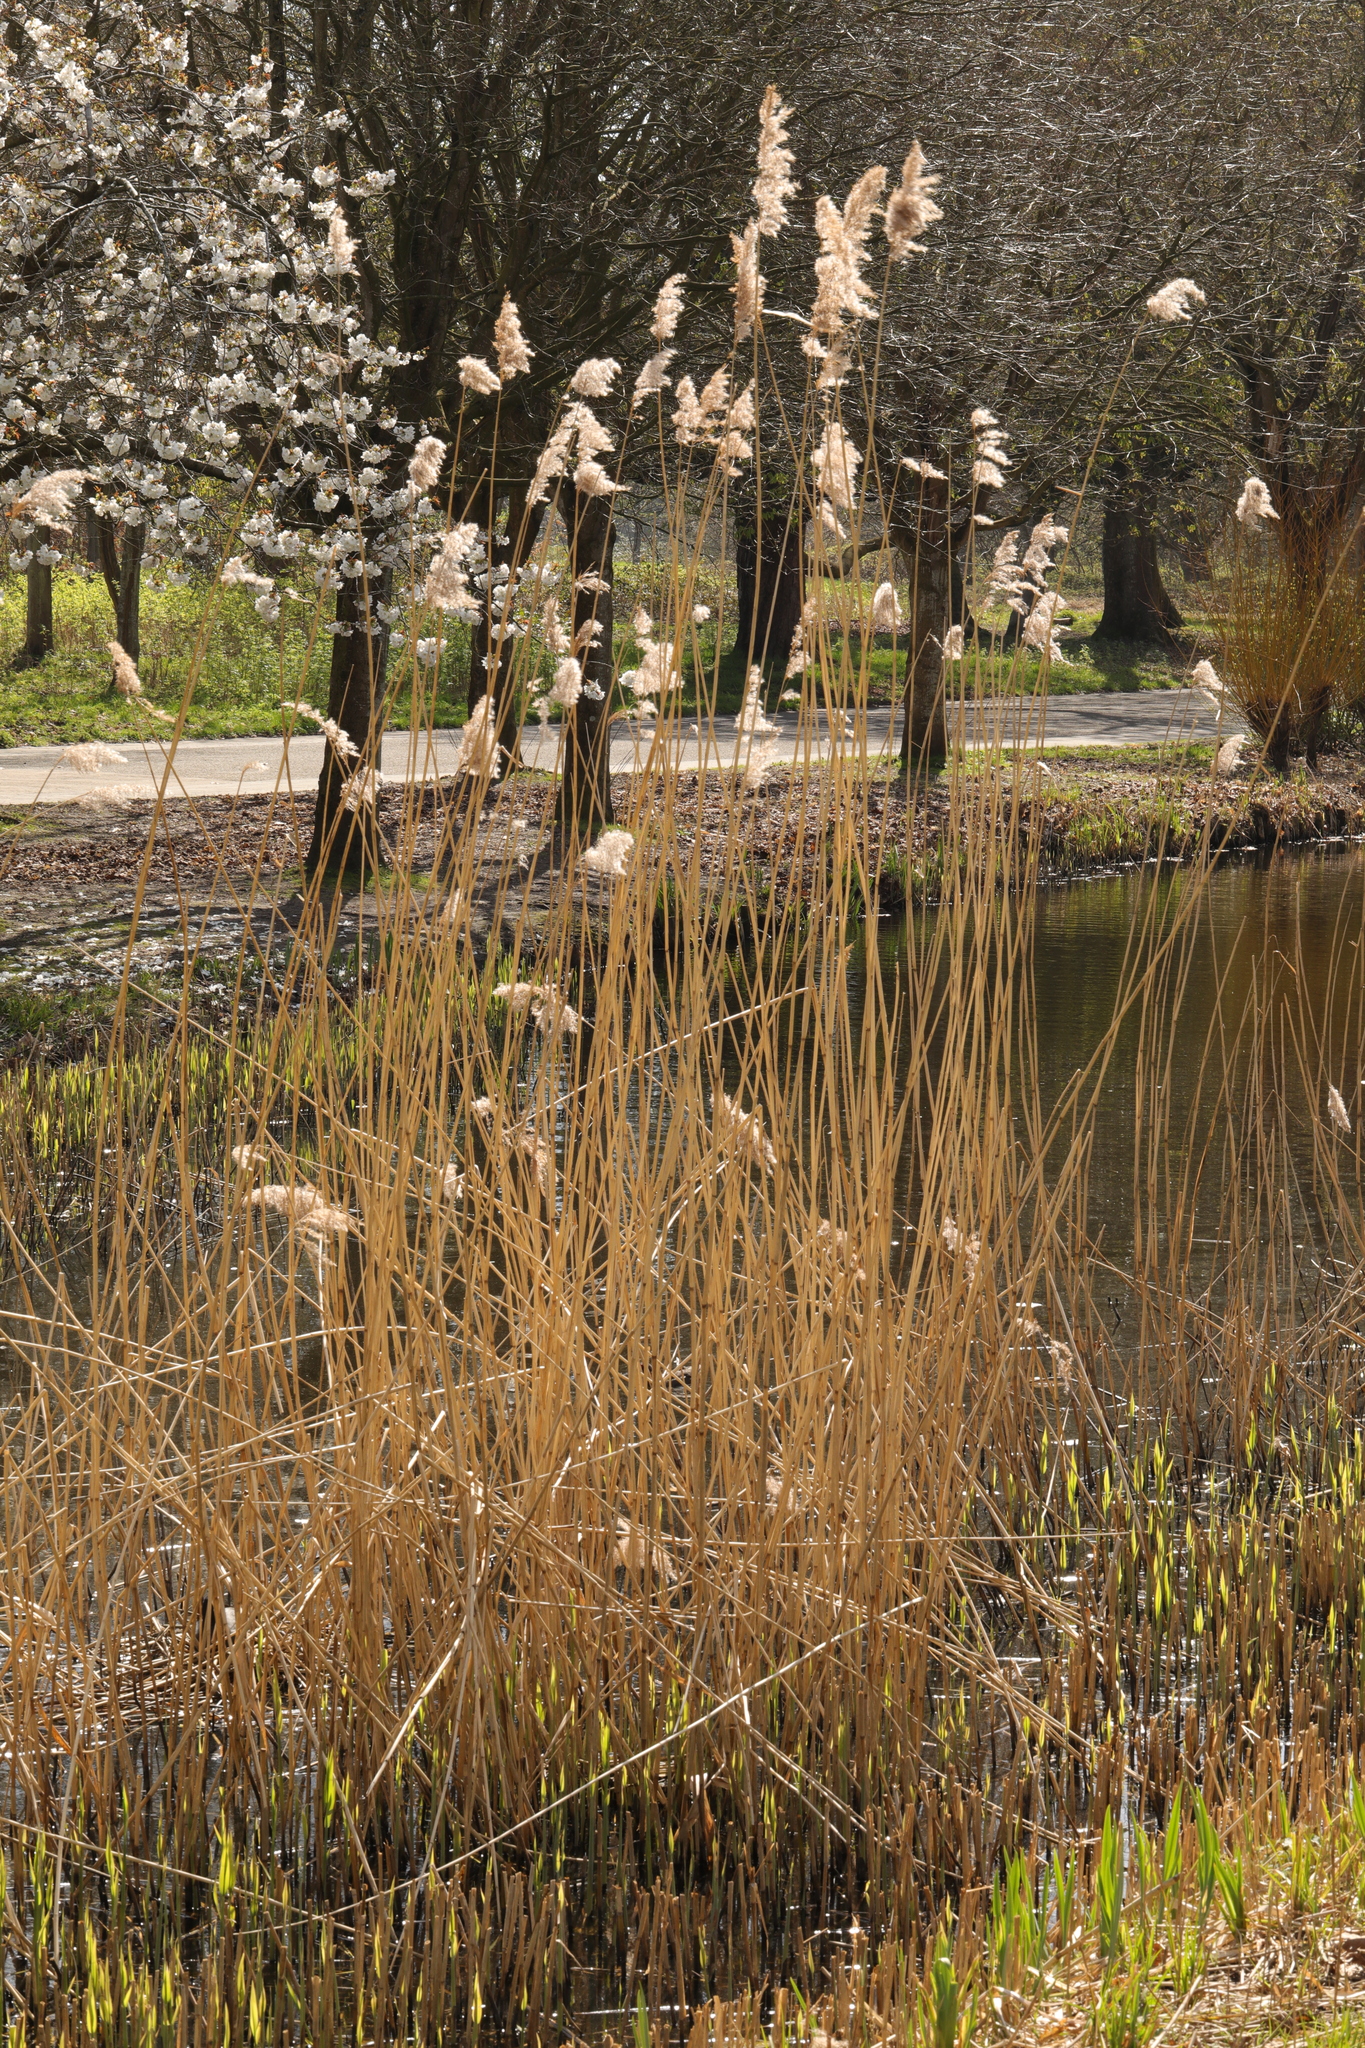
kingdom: Plantae
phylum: Tracheophyta
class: Liliopsida
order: Poales
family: Poaceae
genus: Phragmites
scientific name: Phragmites australis
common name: Common reed
